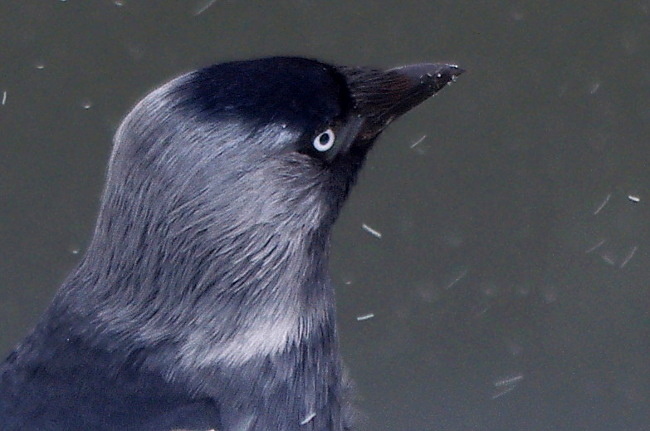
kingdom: Animalia
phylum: Chordata
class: Aves
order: Passeriformes
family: Corvidae
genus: Coloeus
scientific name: Coloeus monedula
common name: Western jackdaw
